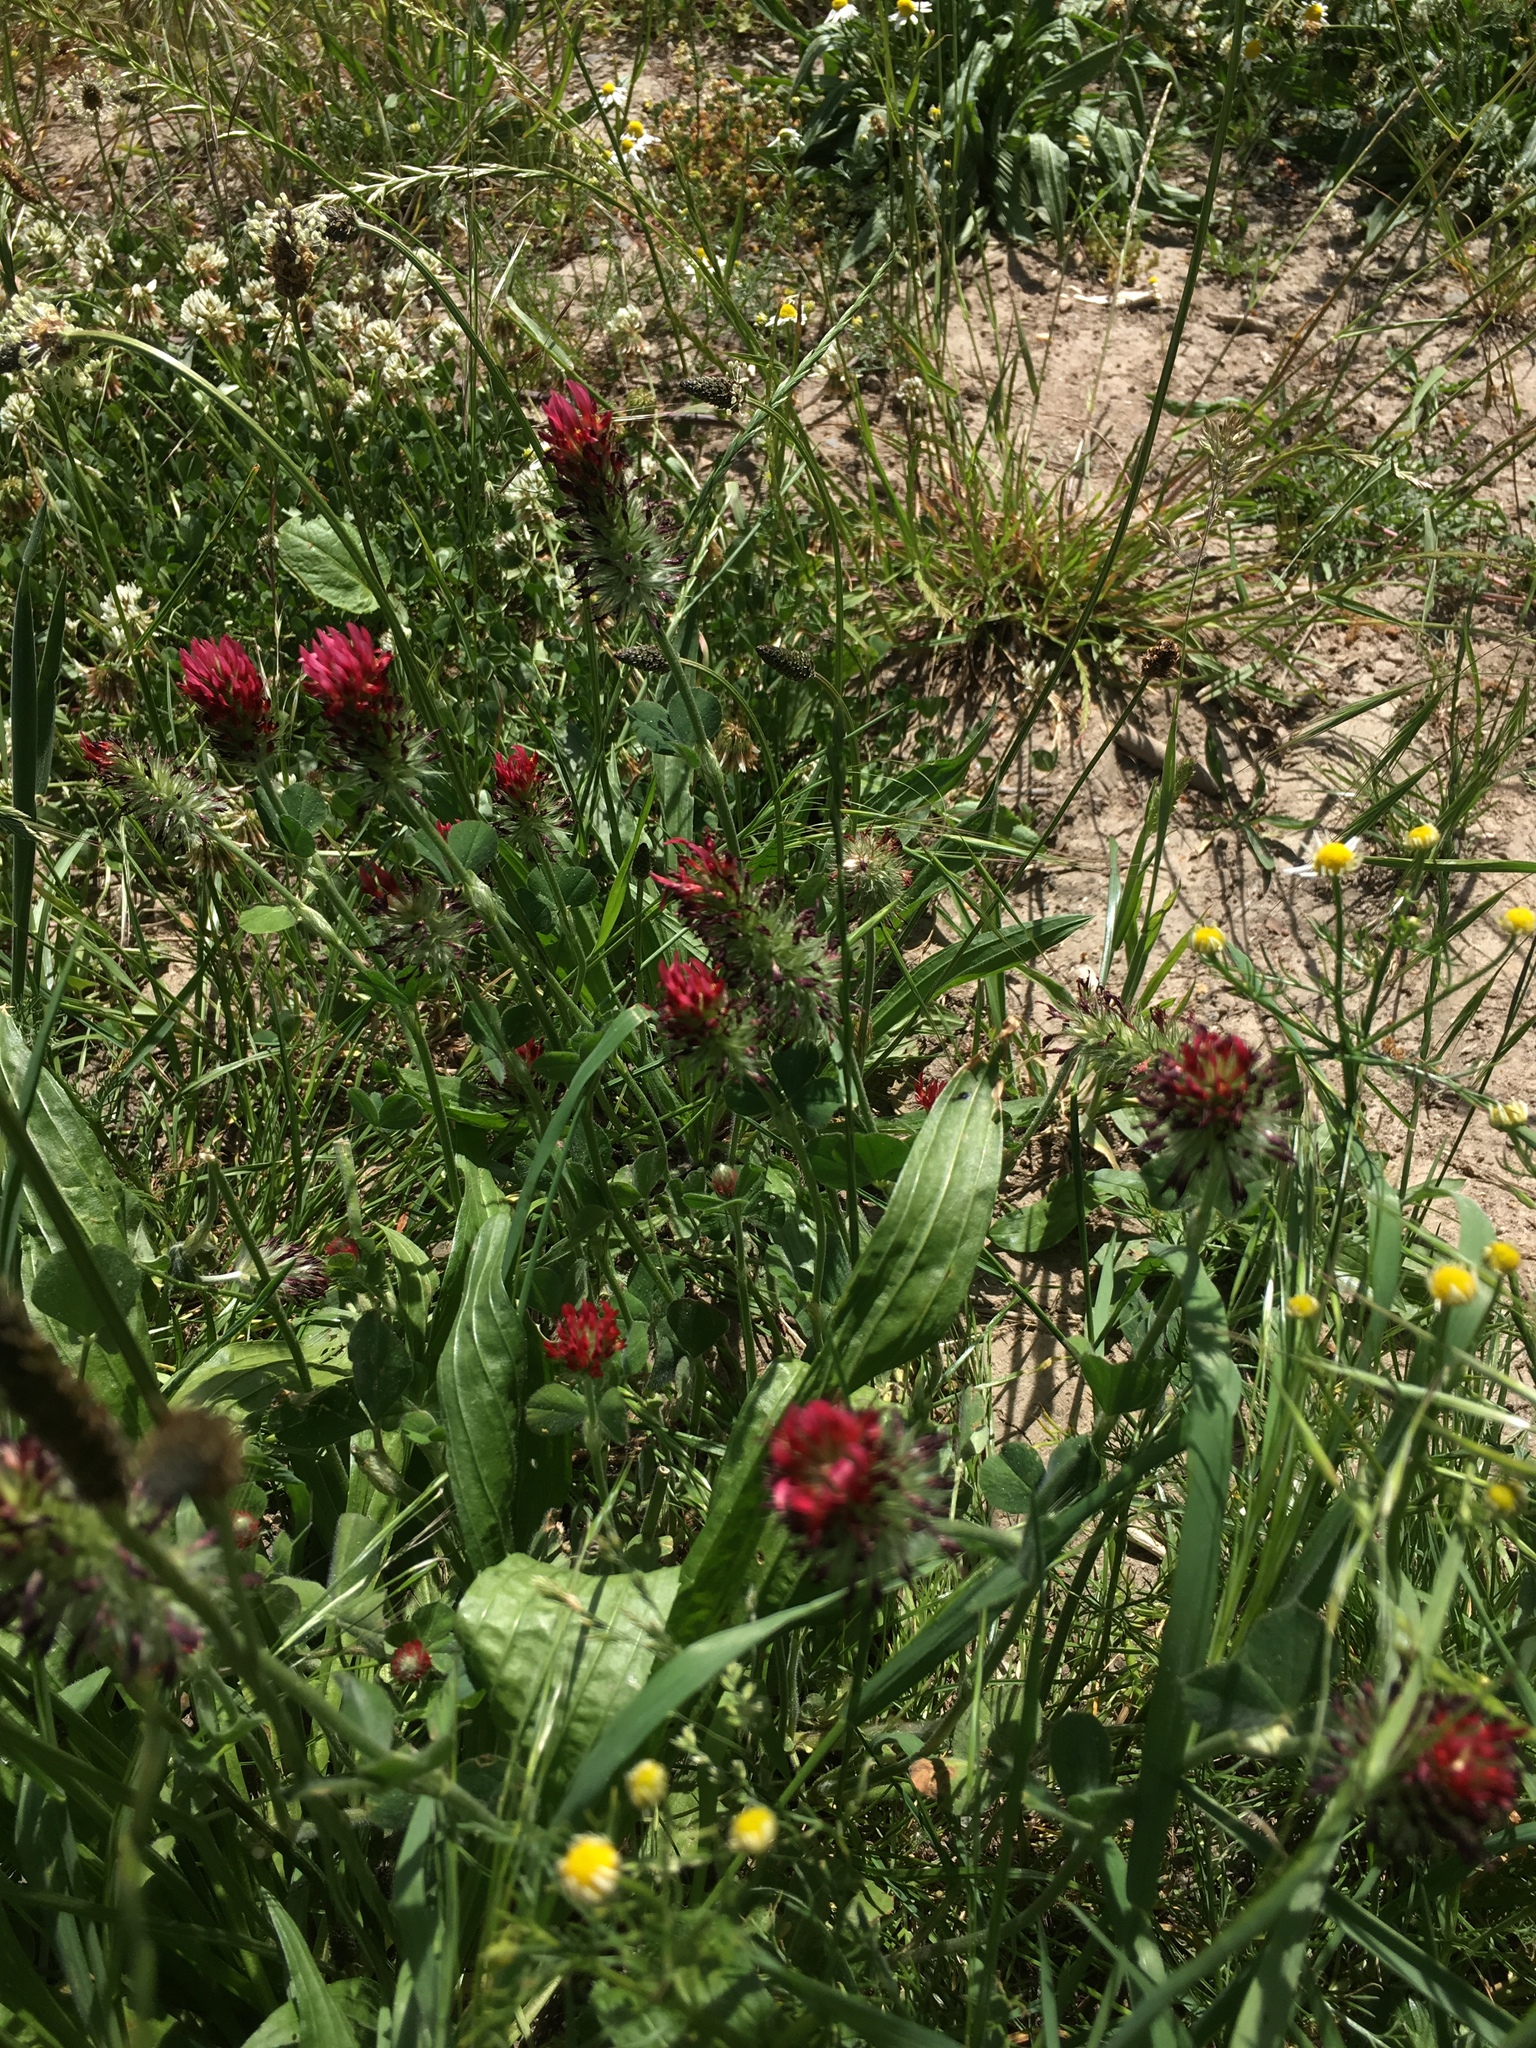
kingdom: Plantae
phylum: Tracheophyta
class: Magnoliopsida
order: Fabales
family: Fabaceae
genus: Trifolium
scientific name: Trifolium incarnatum
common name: Crimson clover
